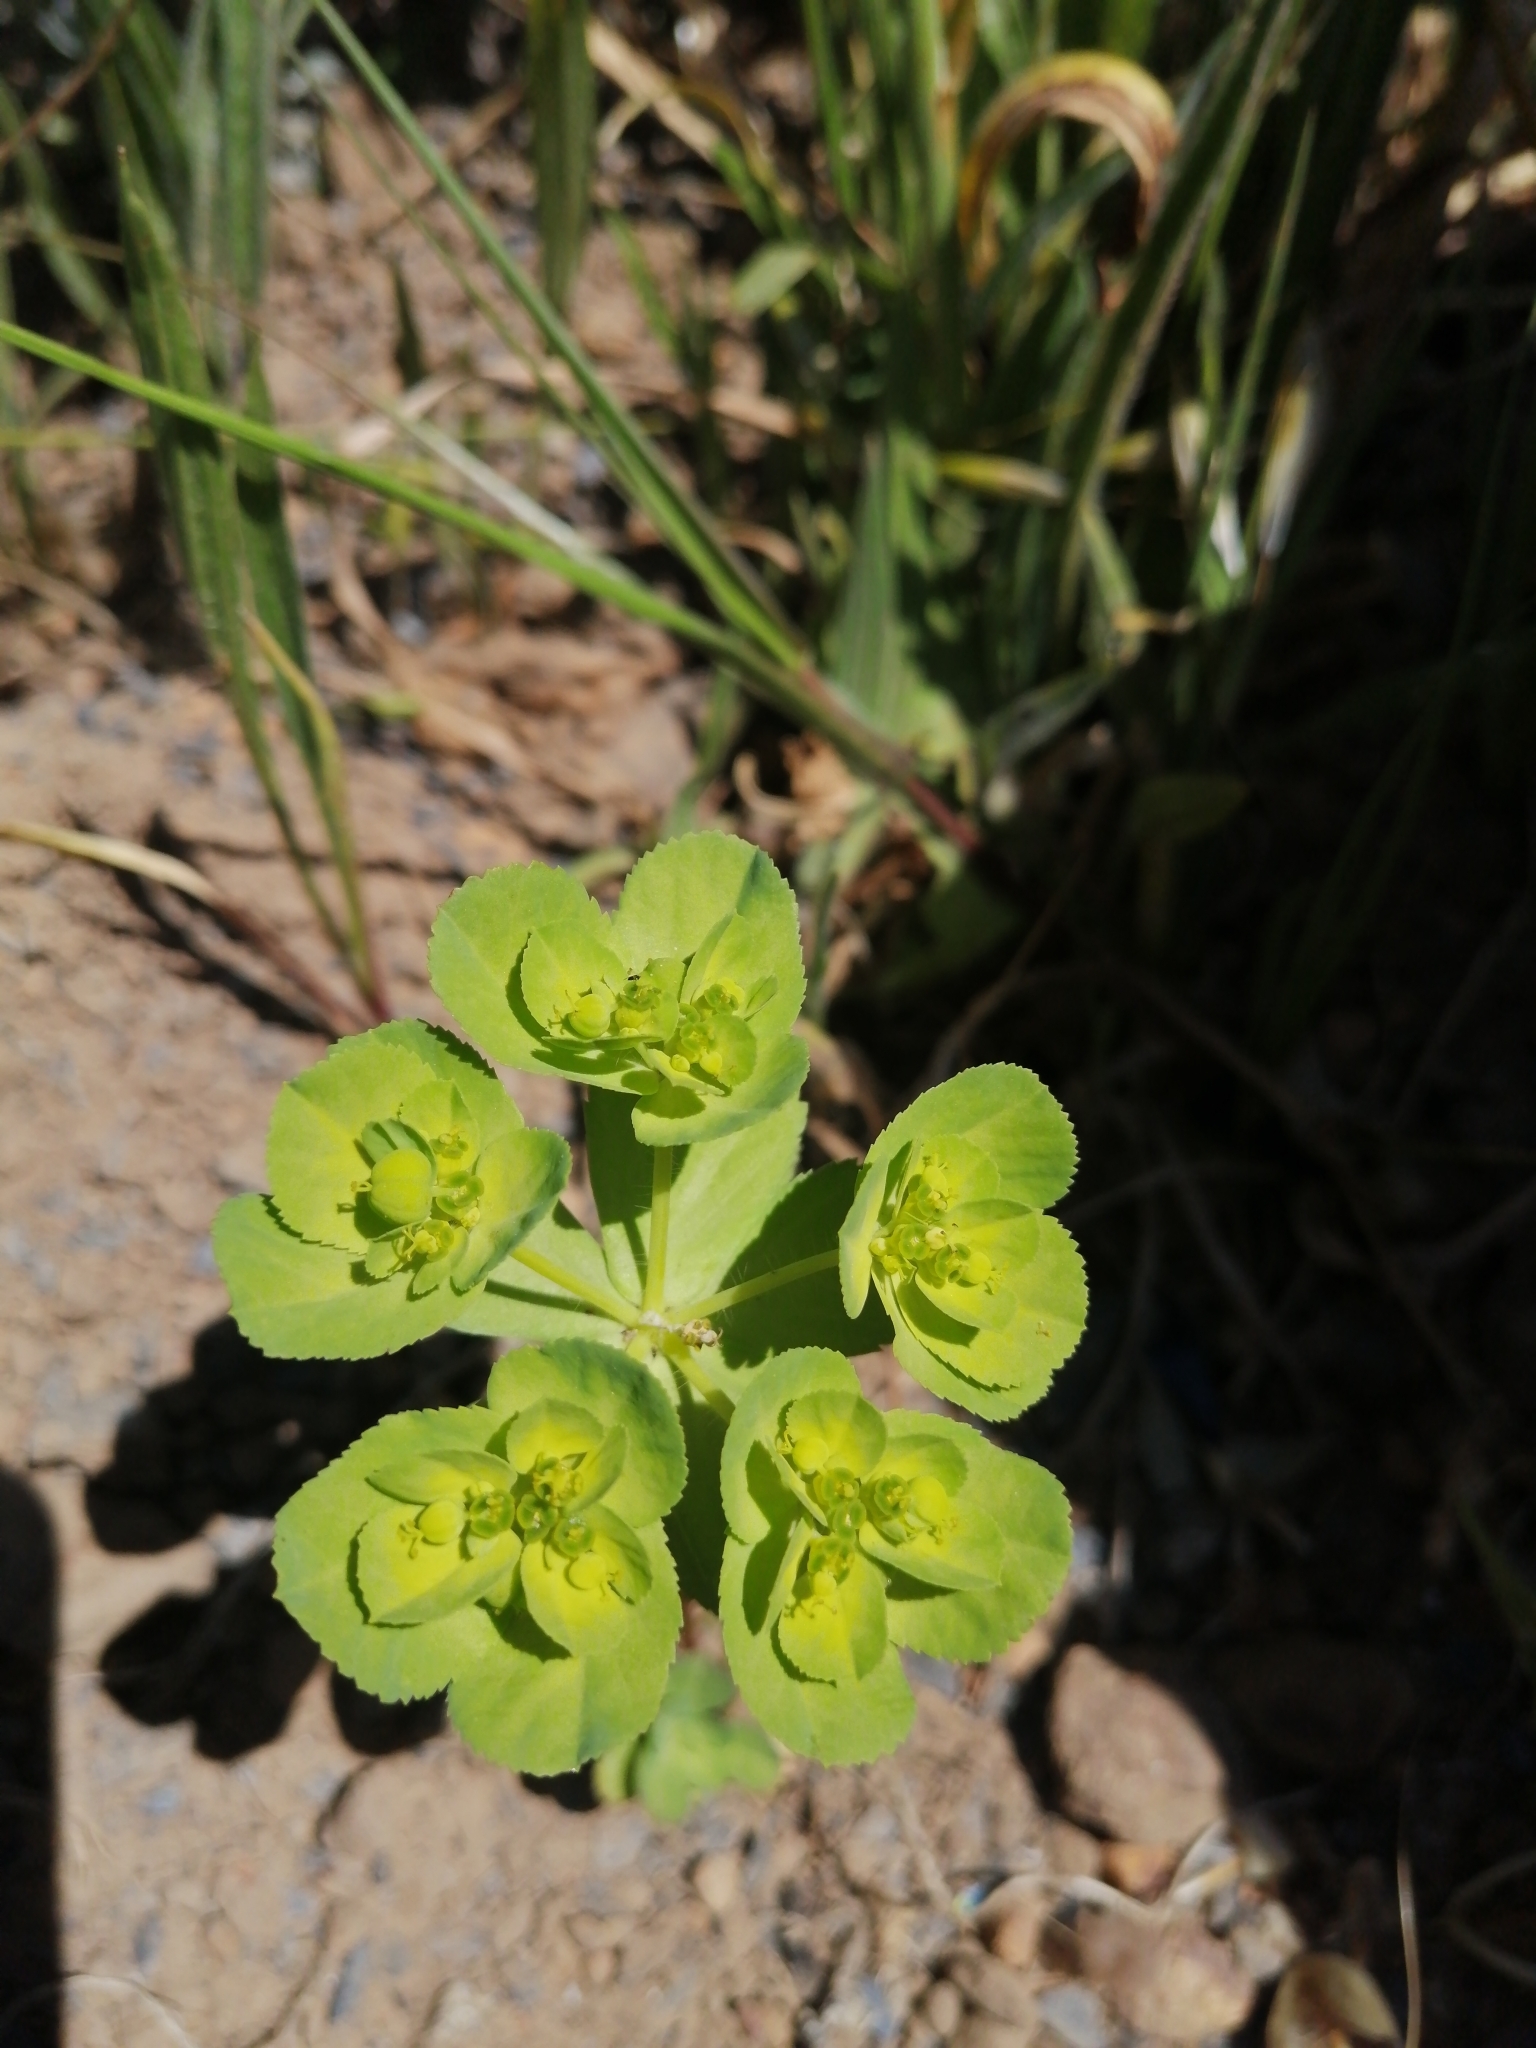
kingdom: Plantae
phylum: Tracheophyta
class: Magnoliopsida
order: Malpighiales
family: Euphorbiaceae
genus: Euphorbia
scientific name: Euphorbia helioscopia
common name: Sun spurge
